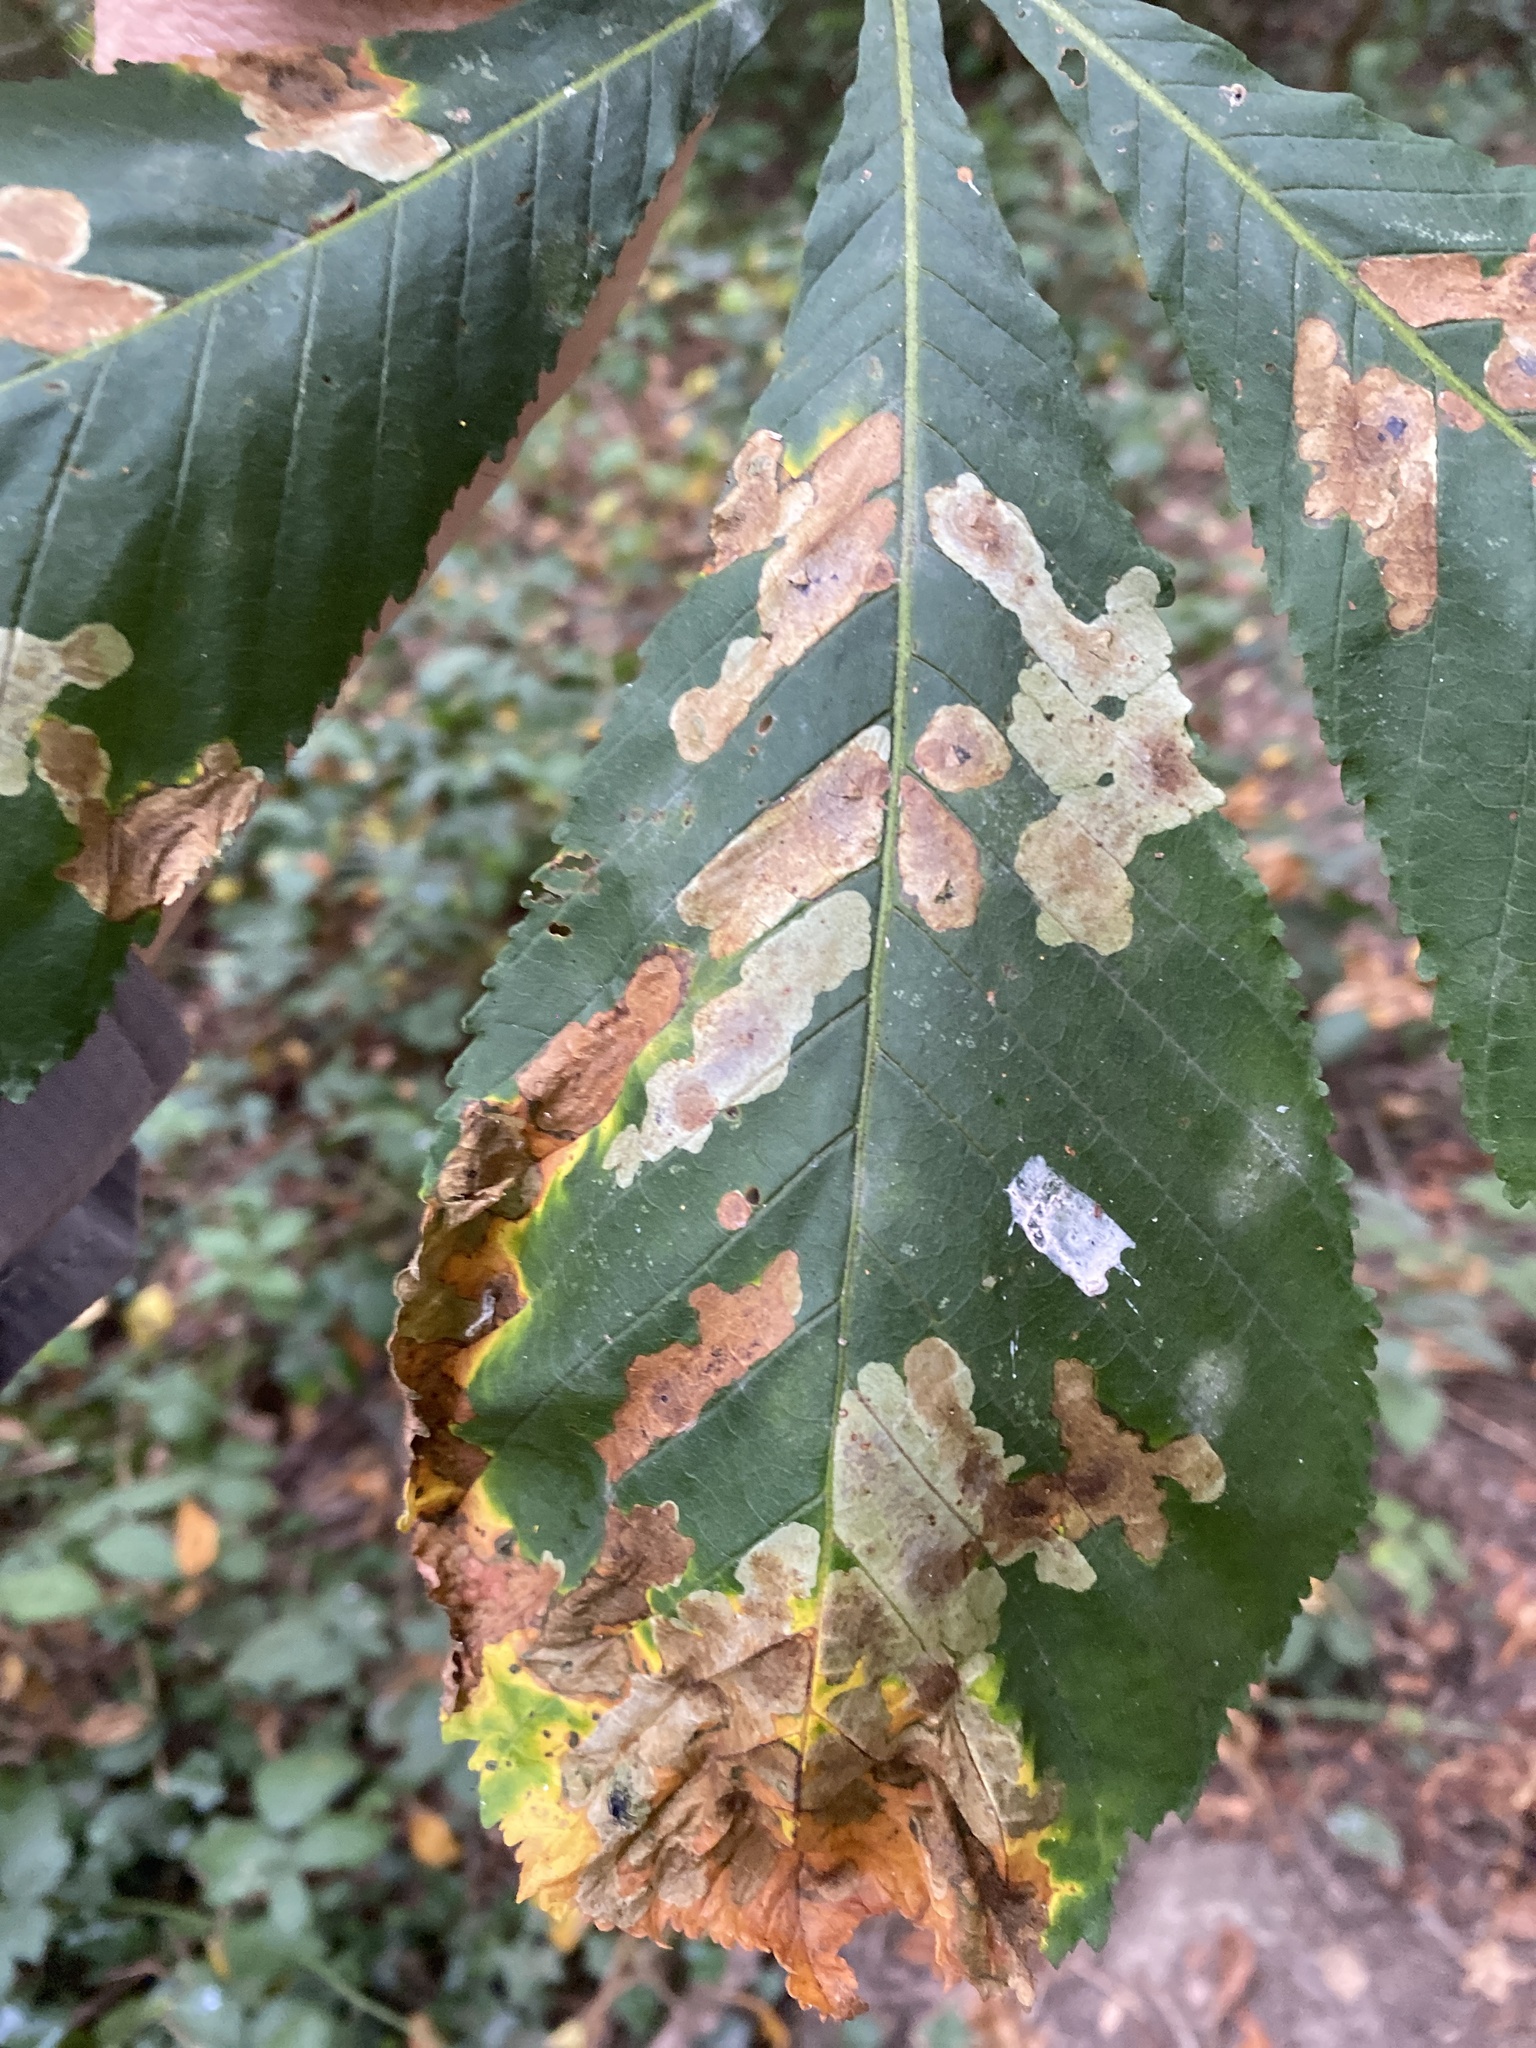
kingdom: Animalia
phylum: Arthropoda
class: Insecta
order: Lepidoptera
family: Gracillariidae
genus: Cameraria
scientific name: Cameraria ohridella
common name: Horse-chestnut leaf-miner
